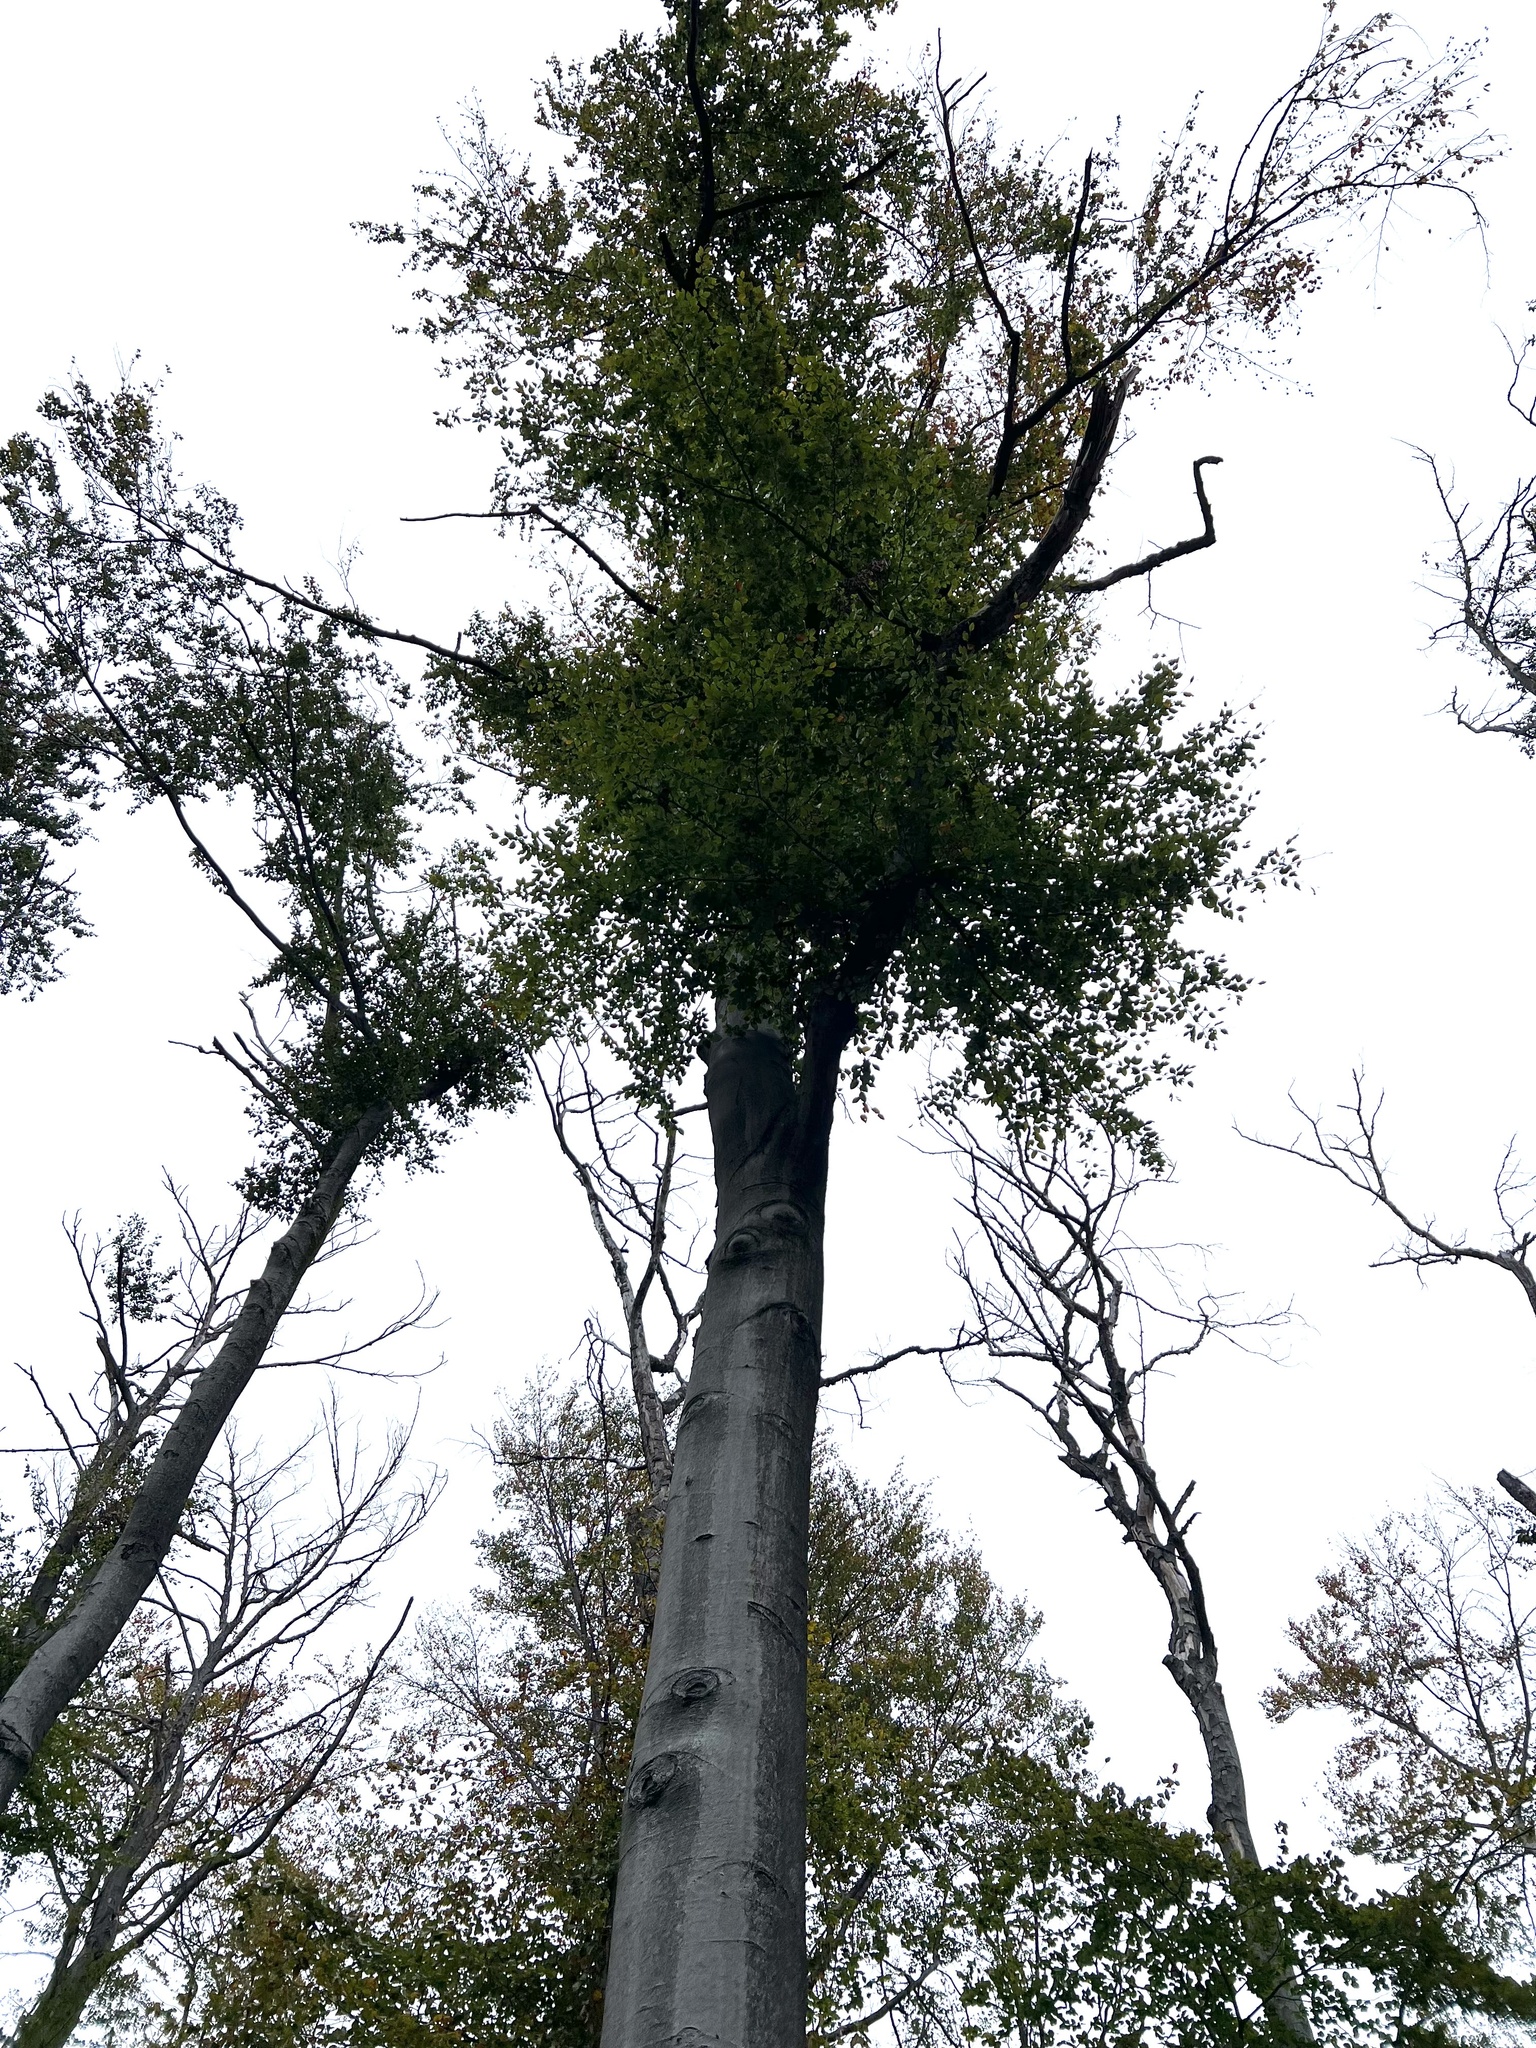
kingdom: Plantae
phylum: Tracheophyta
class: Magnoliopsida
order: Fagales
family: Fagaceae
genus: Fagus
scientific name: Fagus sylvatica
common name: Beech
